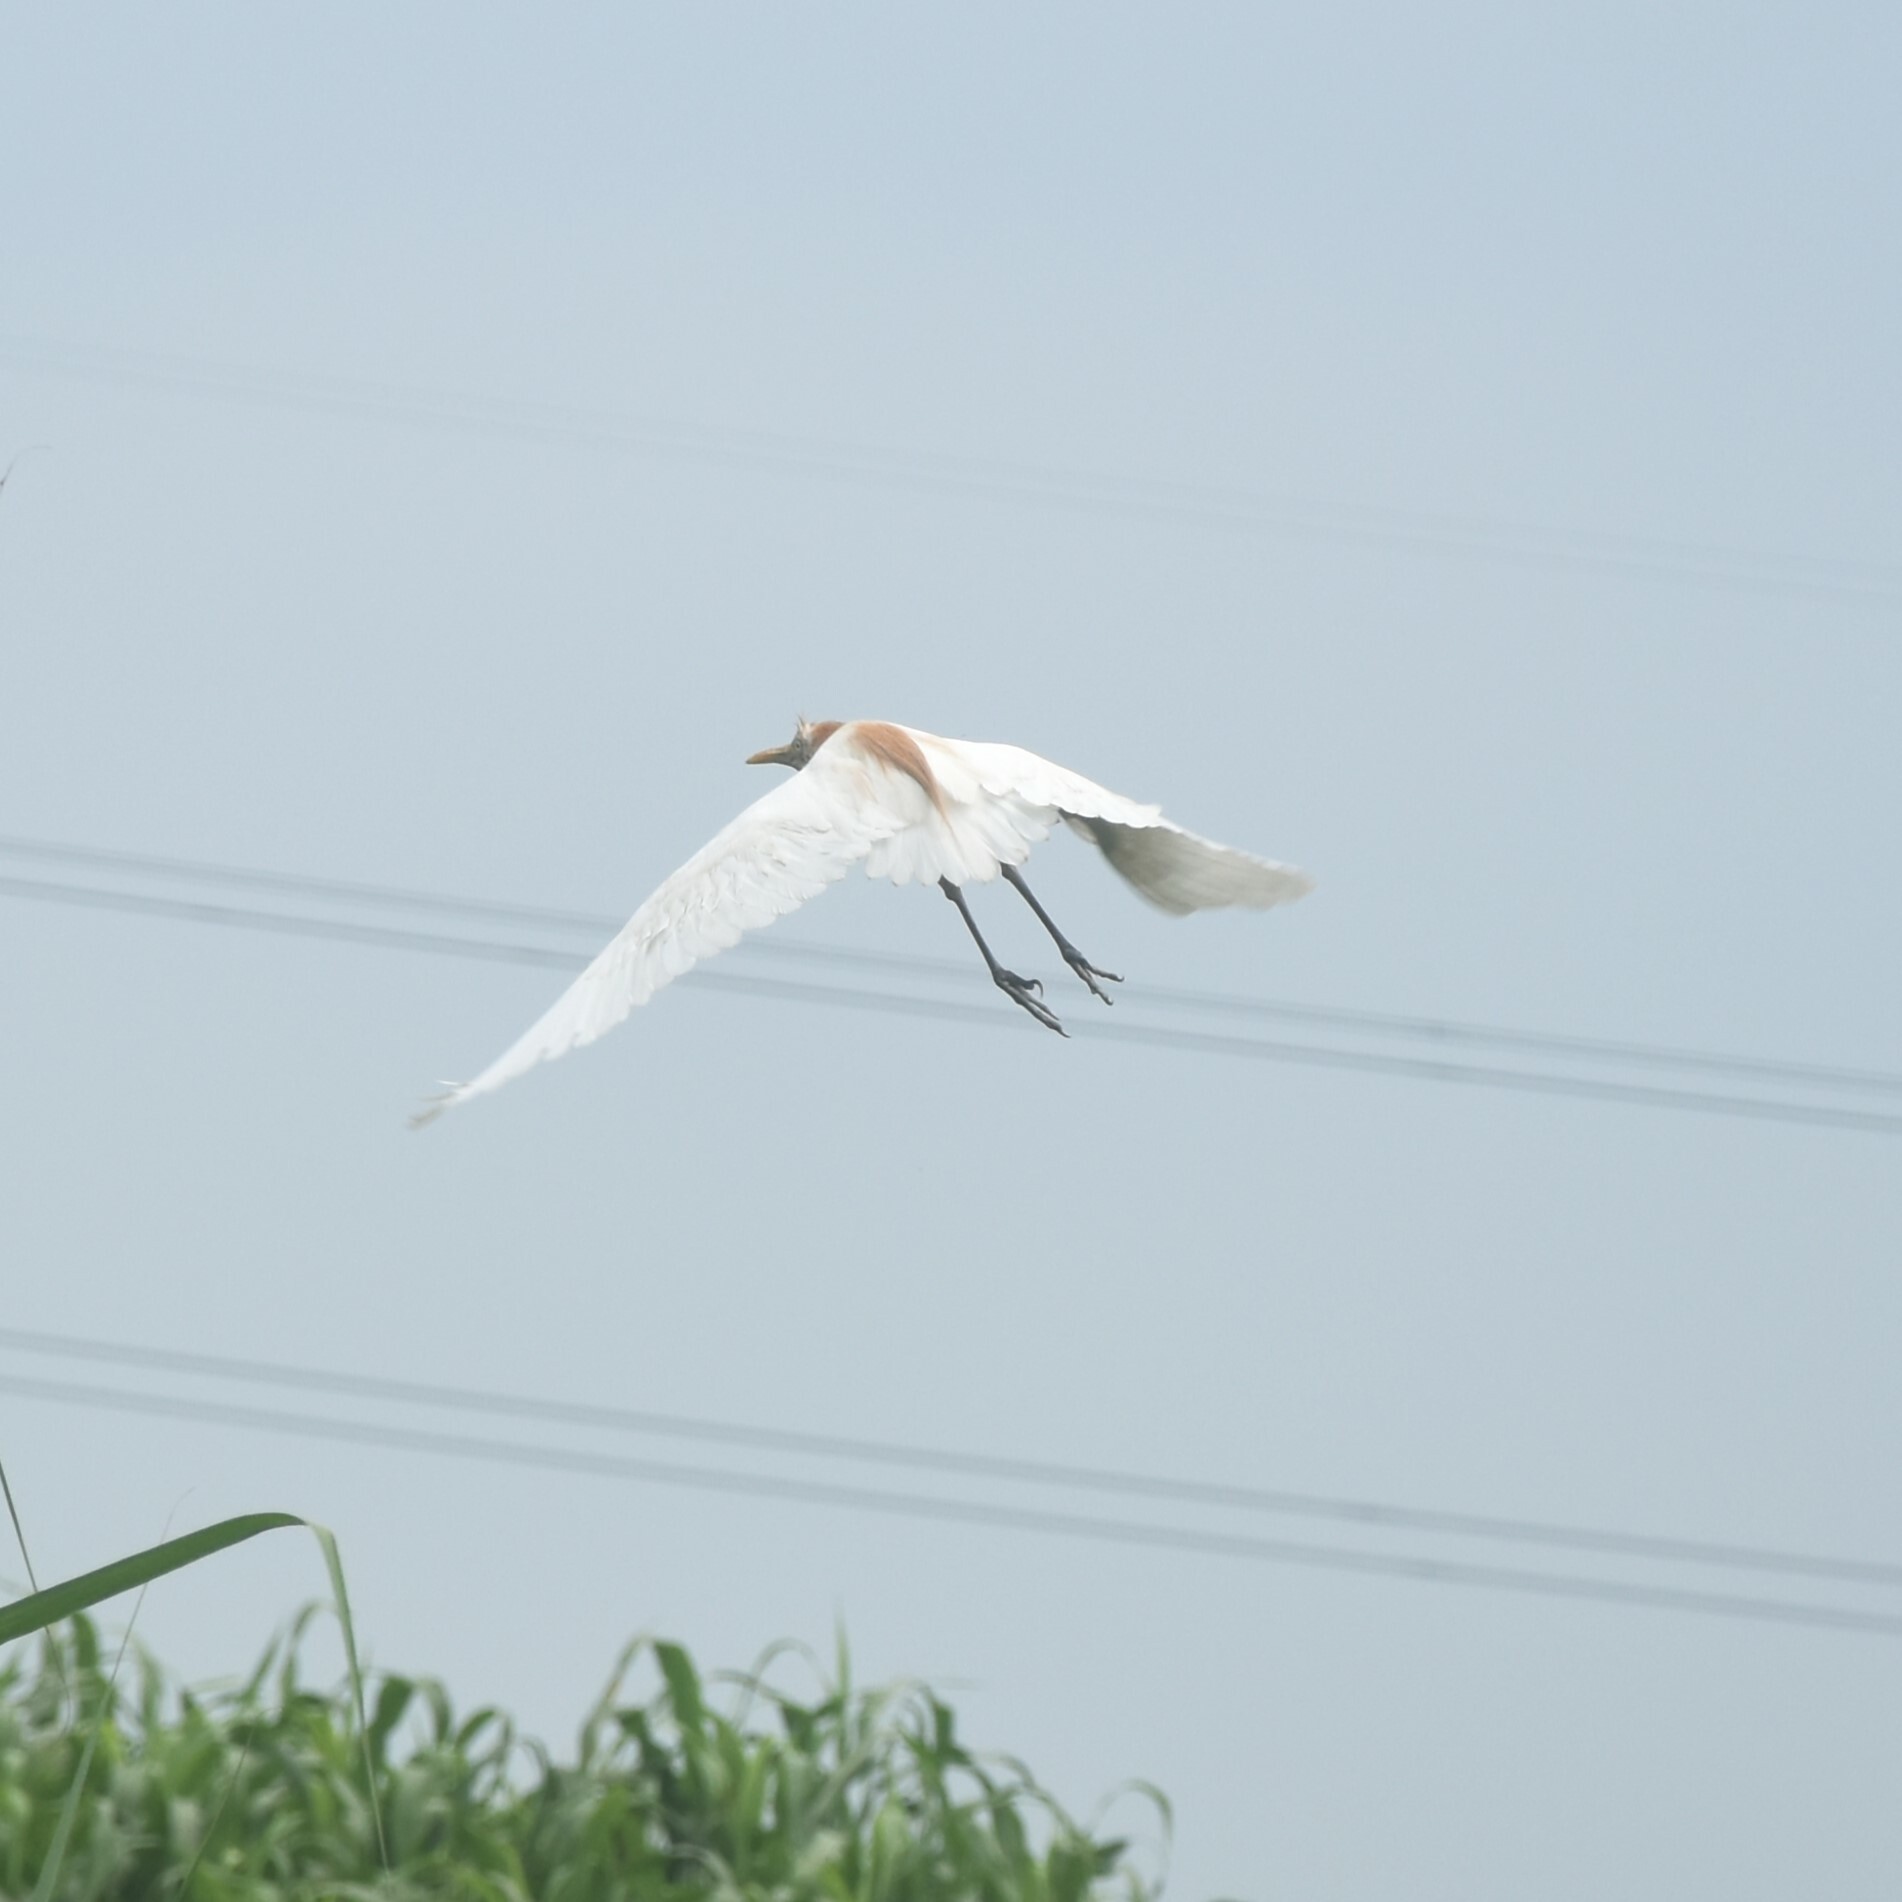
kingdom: Animalia
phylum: Chordata
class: Aves
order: Pelecaniformes
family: Ardeidae
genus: Bubulcus
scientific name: Bubulcus coromandus
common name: Eastern cattle egret
